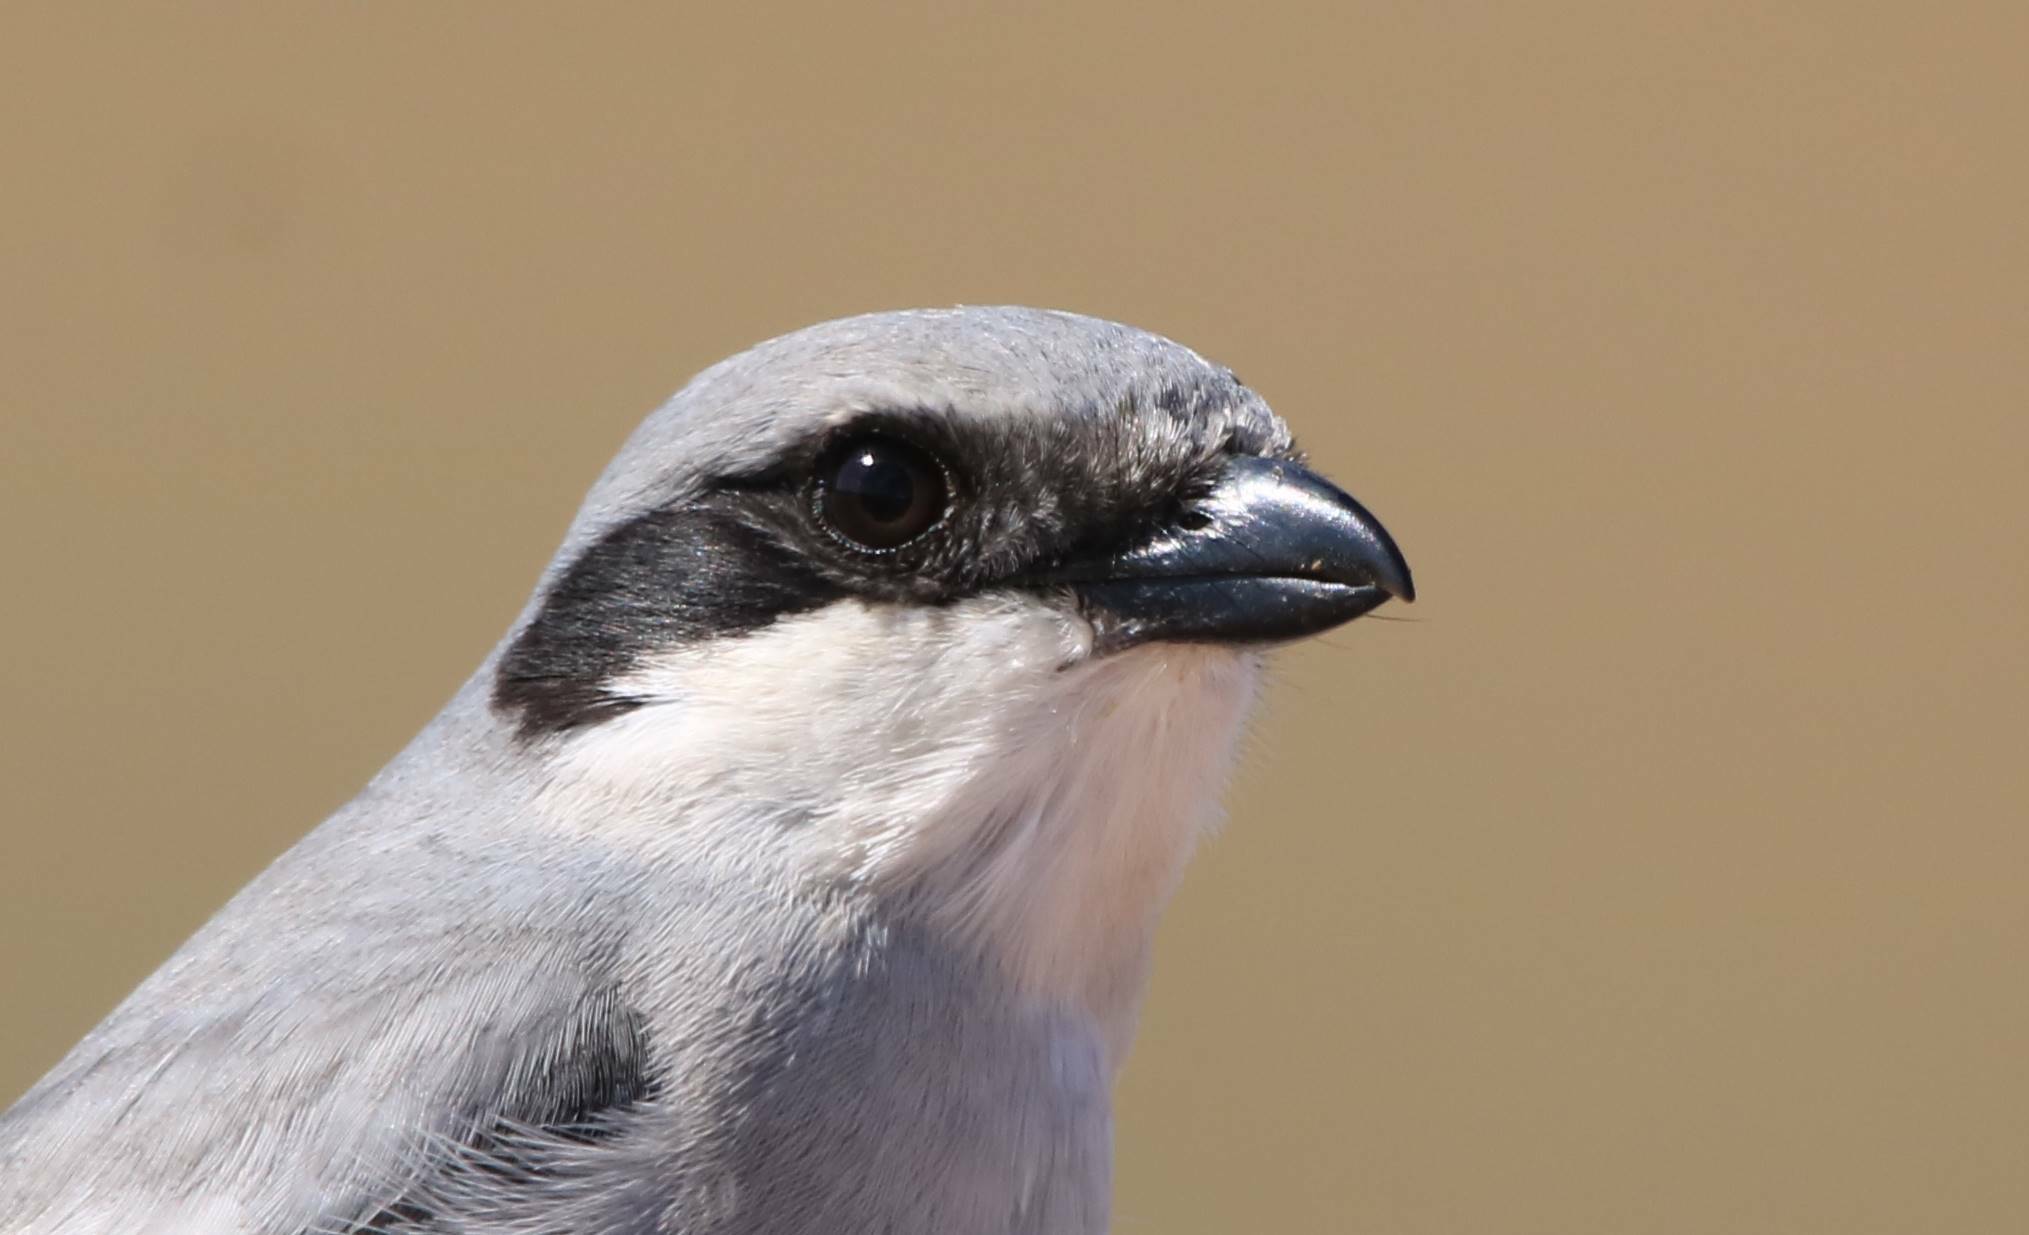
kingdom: Animalia
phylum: Chordata
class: Aves
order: Passeriformes
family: Laniidae
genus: Lanius
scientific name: Lanius excubitor
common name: Great grey shrike
